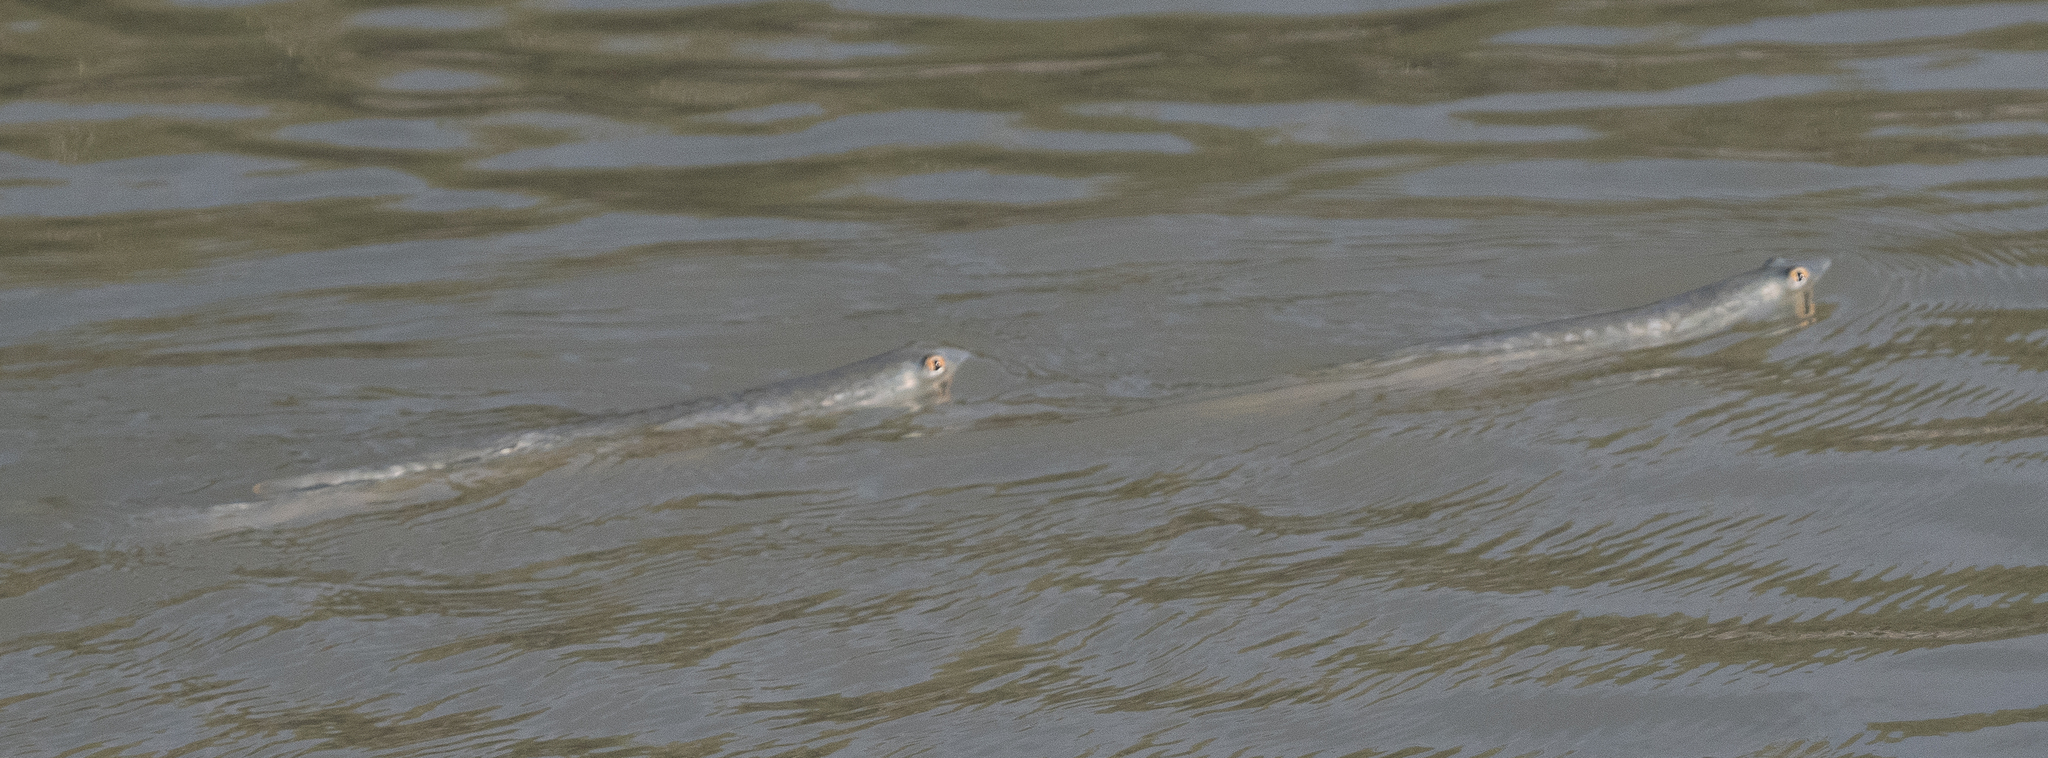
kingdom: Animalia
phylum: Chordata
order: Mugiliformes
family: Mugilidae
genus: Squalomugil
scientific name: Squalomugil nasutus
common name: Mud mullet
